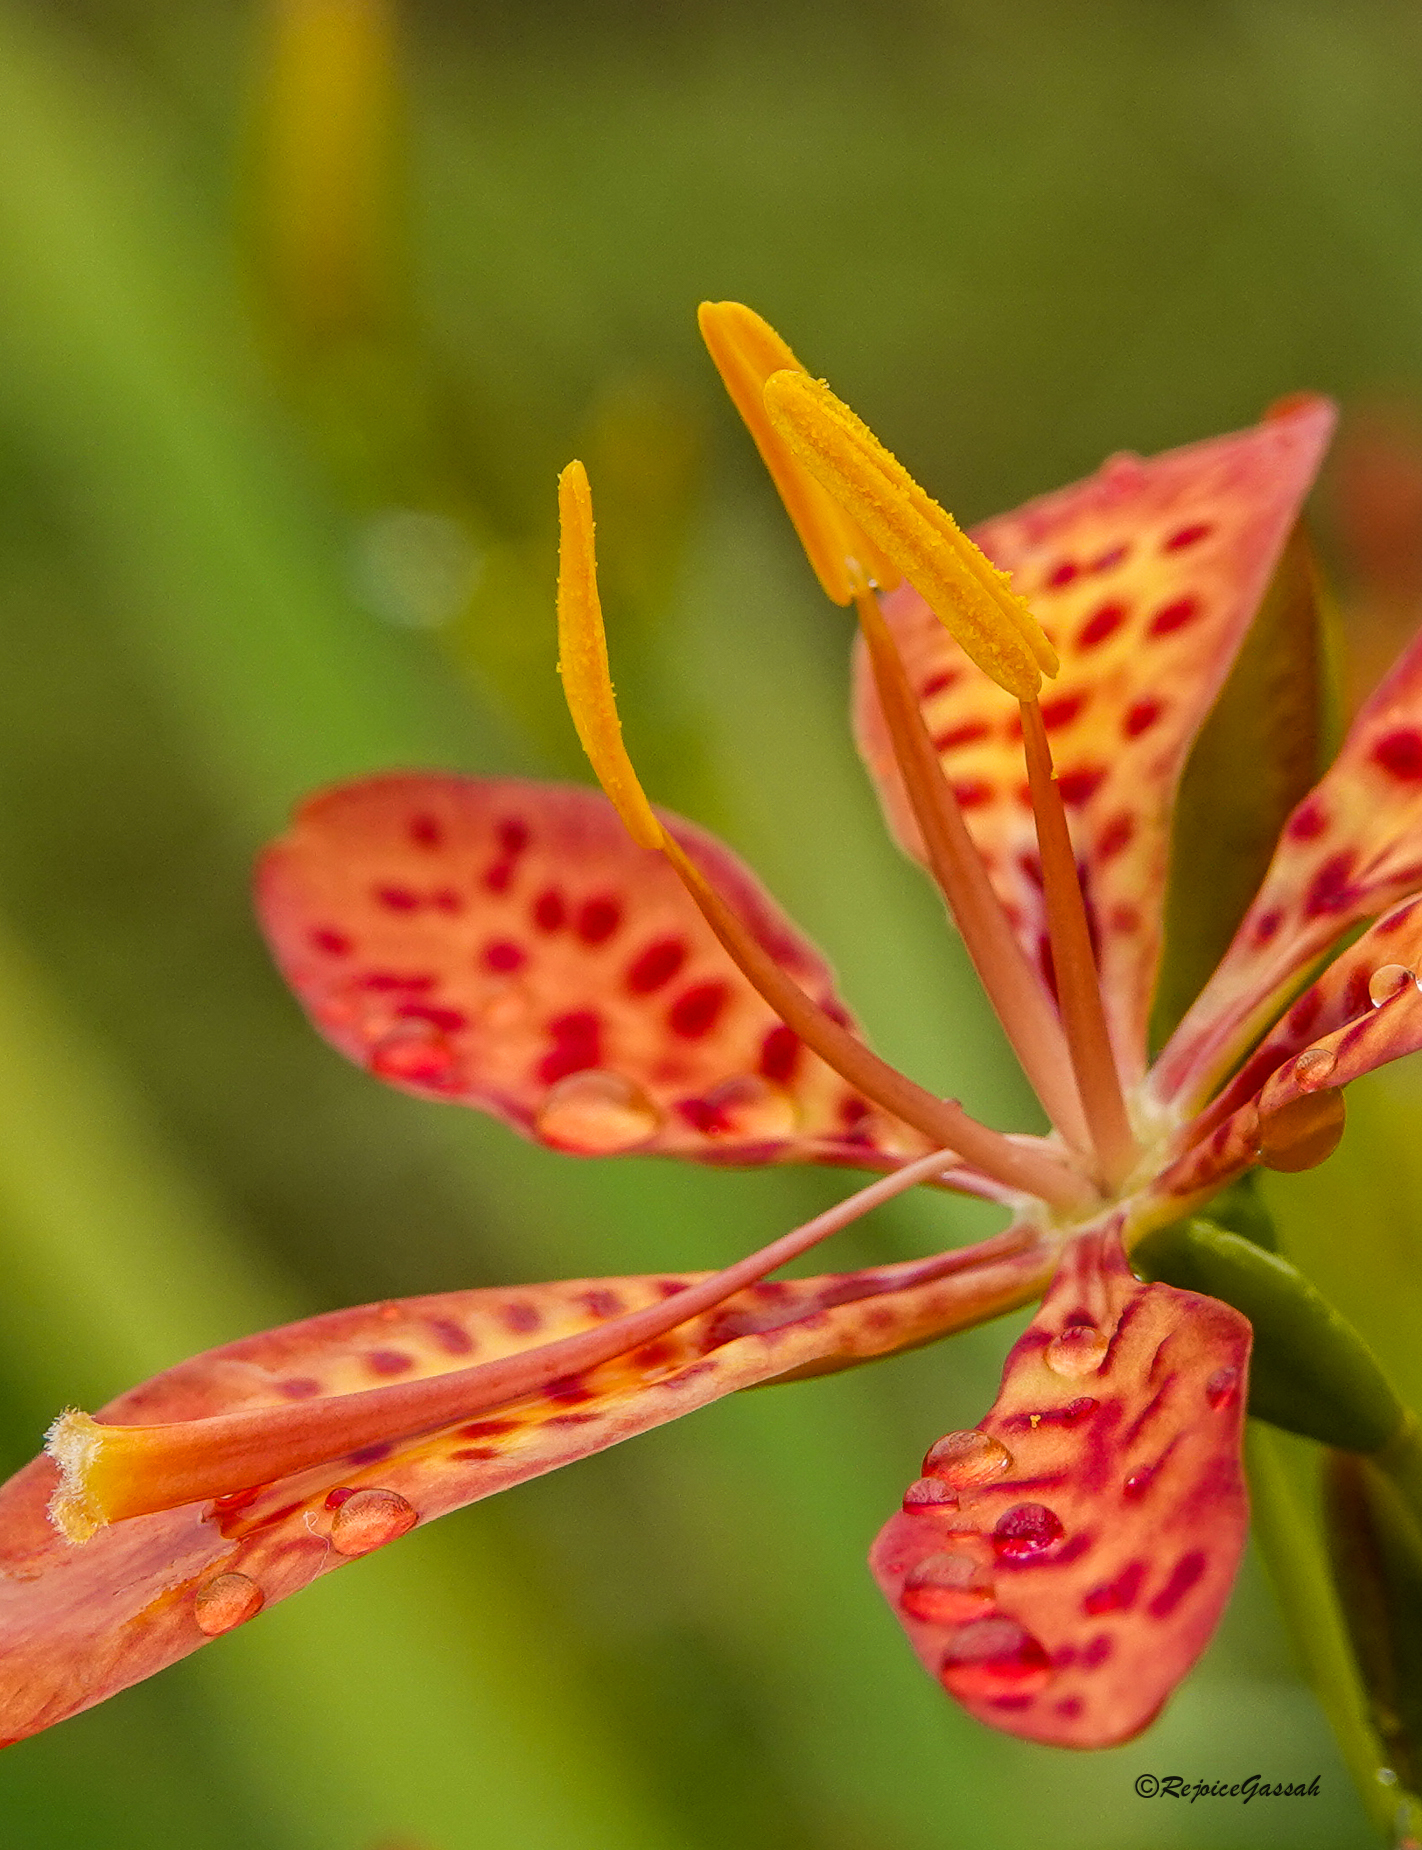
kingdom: Plantae
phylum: Tracheophyta
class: Liliopsida
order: Asparagales
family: Iridaceae
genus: Iris
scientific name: Iris domestica
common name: Belamcanda
